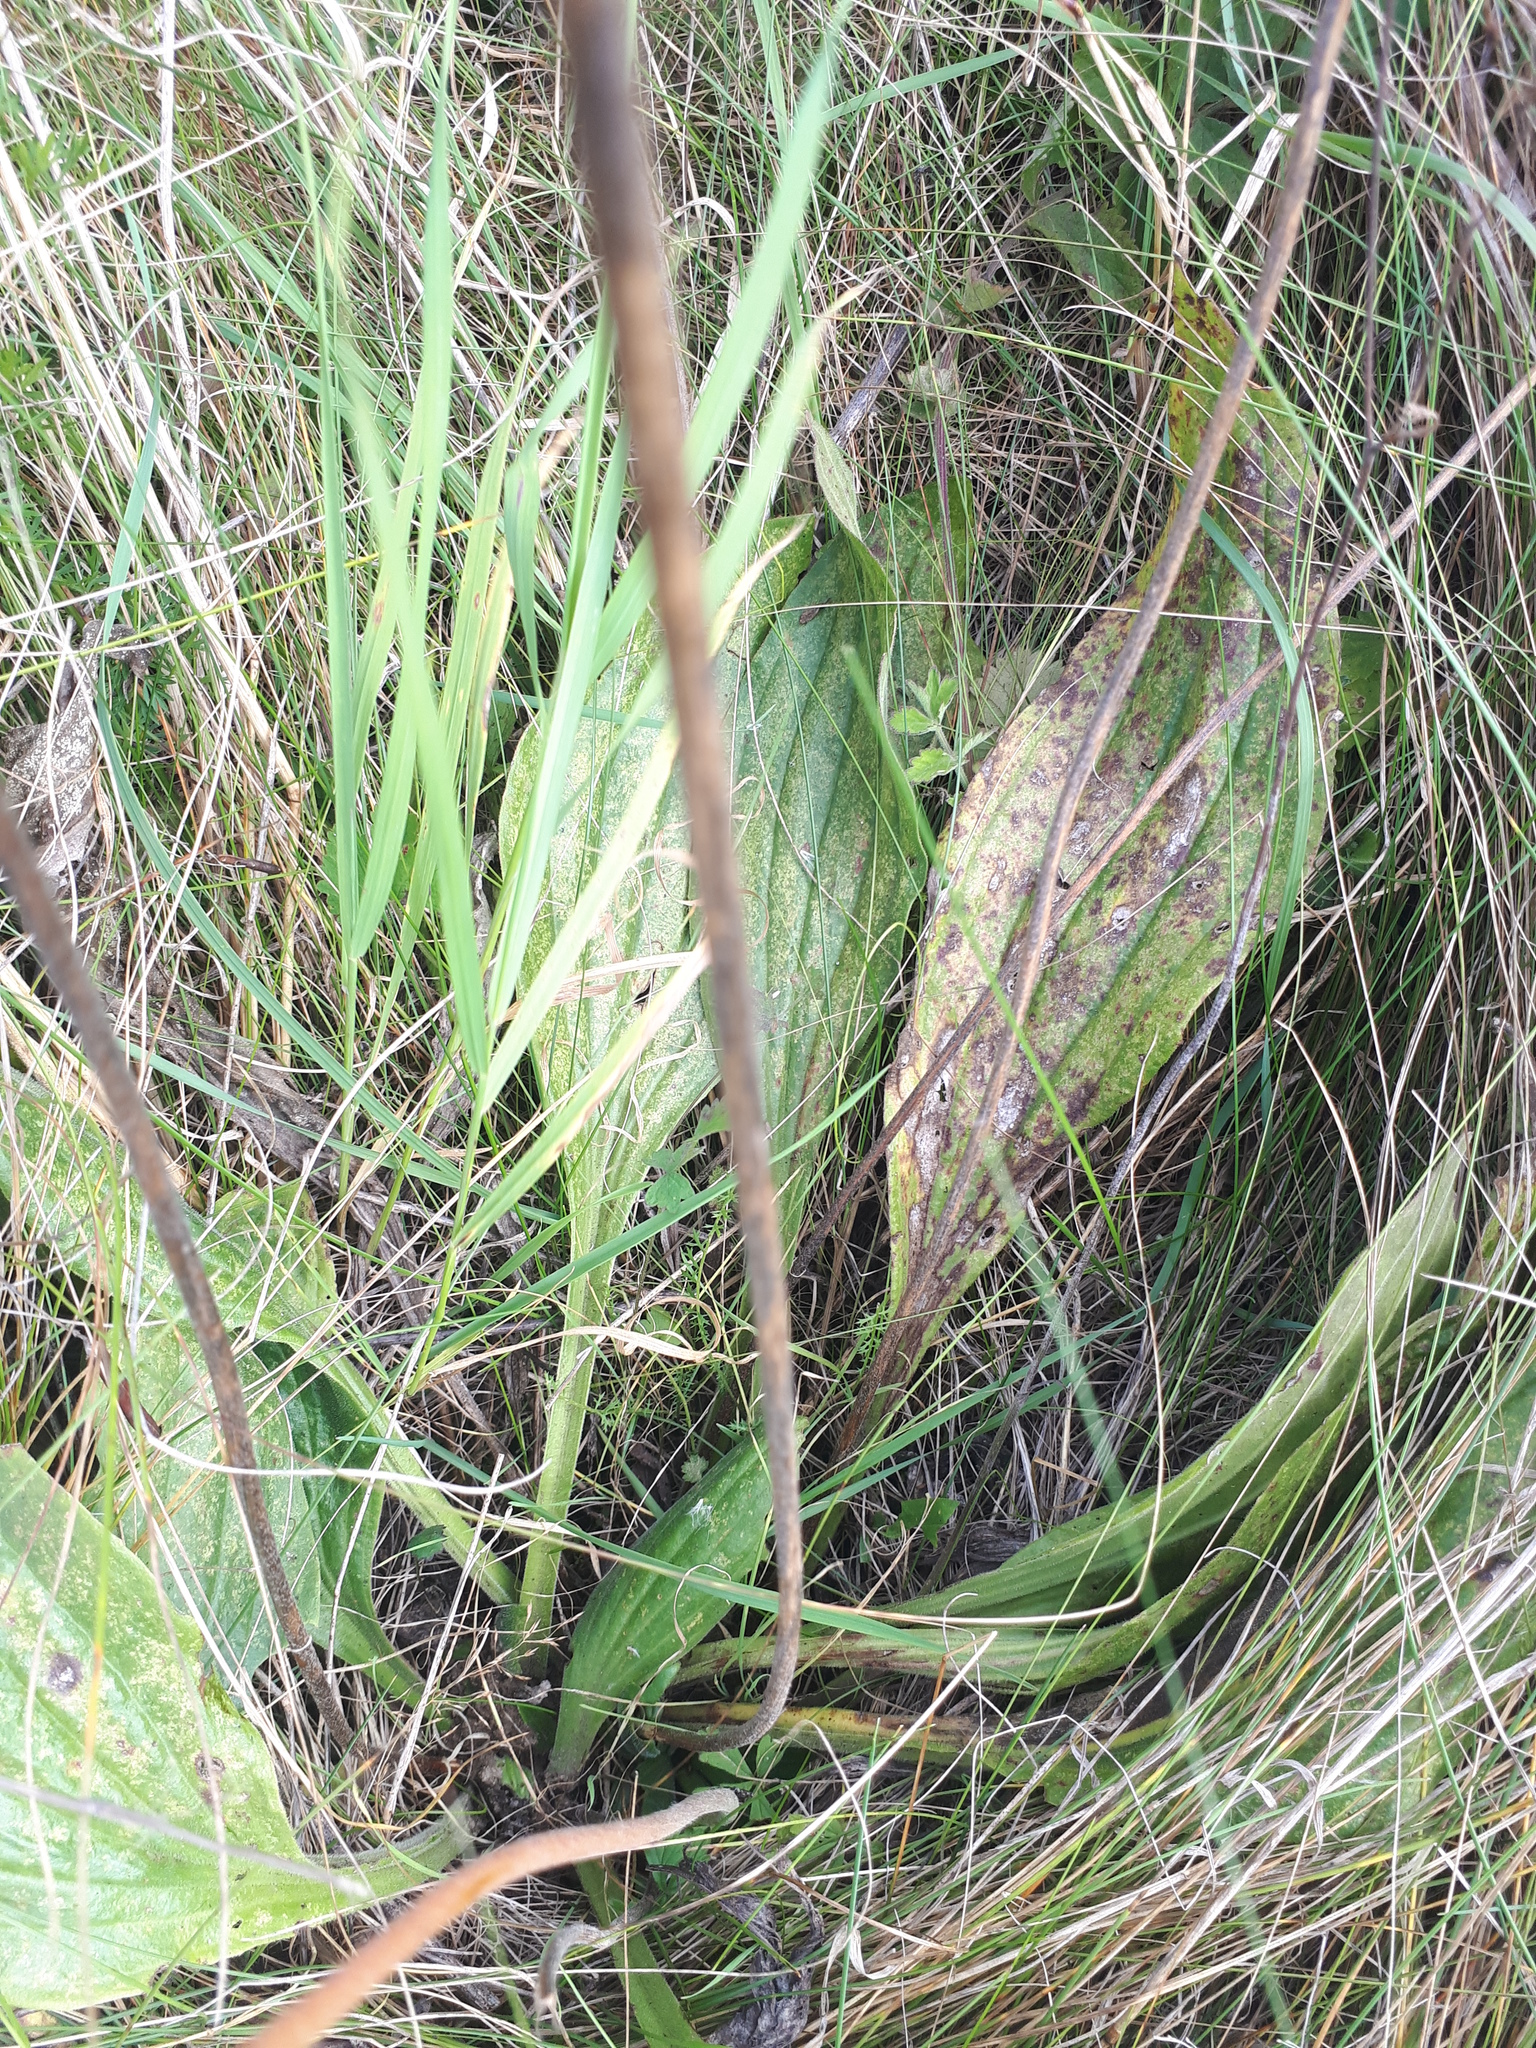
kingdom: Plantae
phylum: Tracheophyta
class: Magnoliopsida
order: Lamiales
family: Plantaginaceae
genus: Plantago
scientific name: Plantago urvillei
